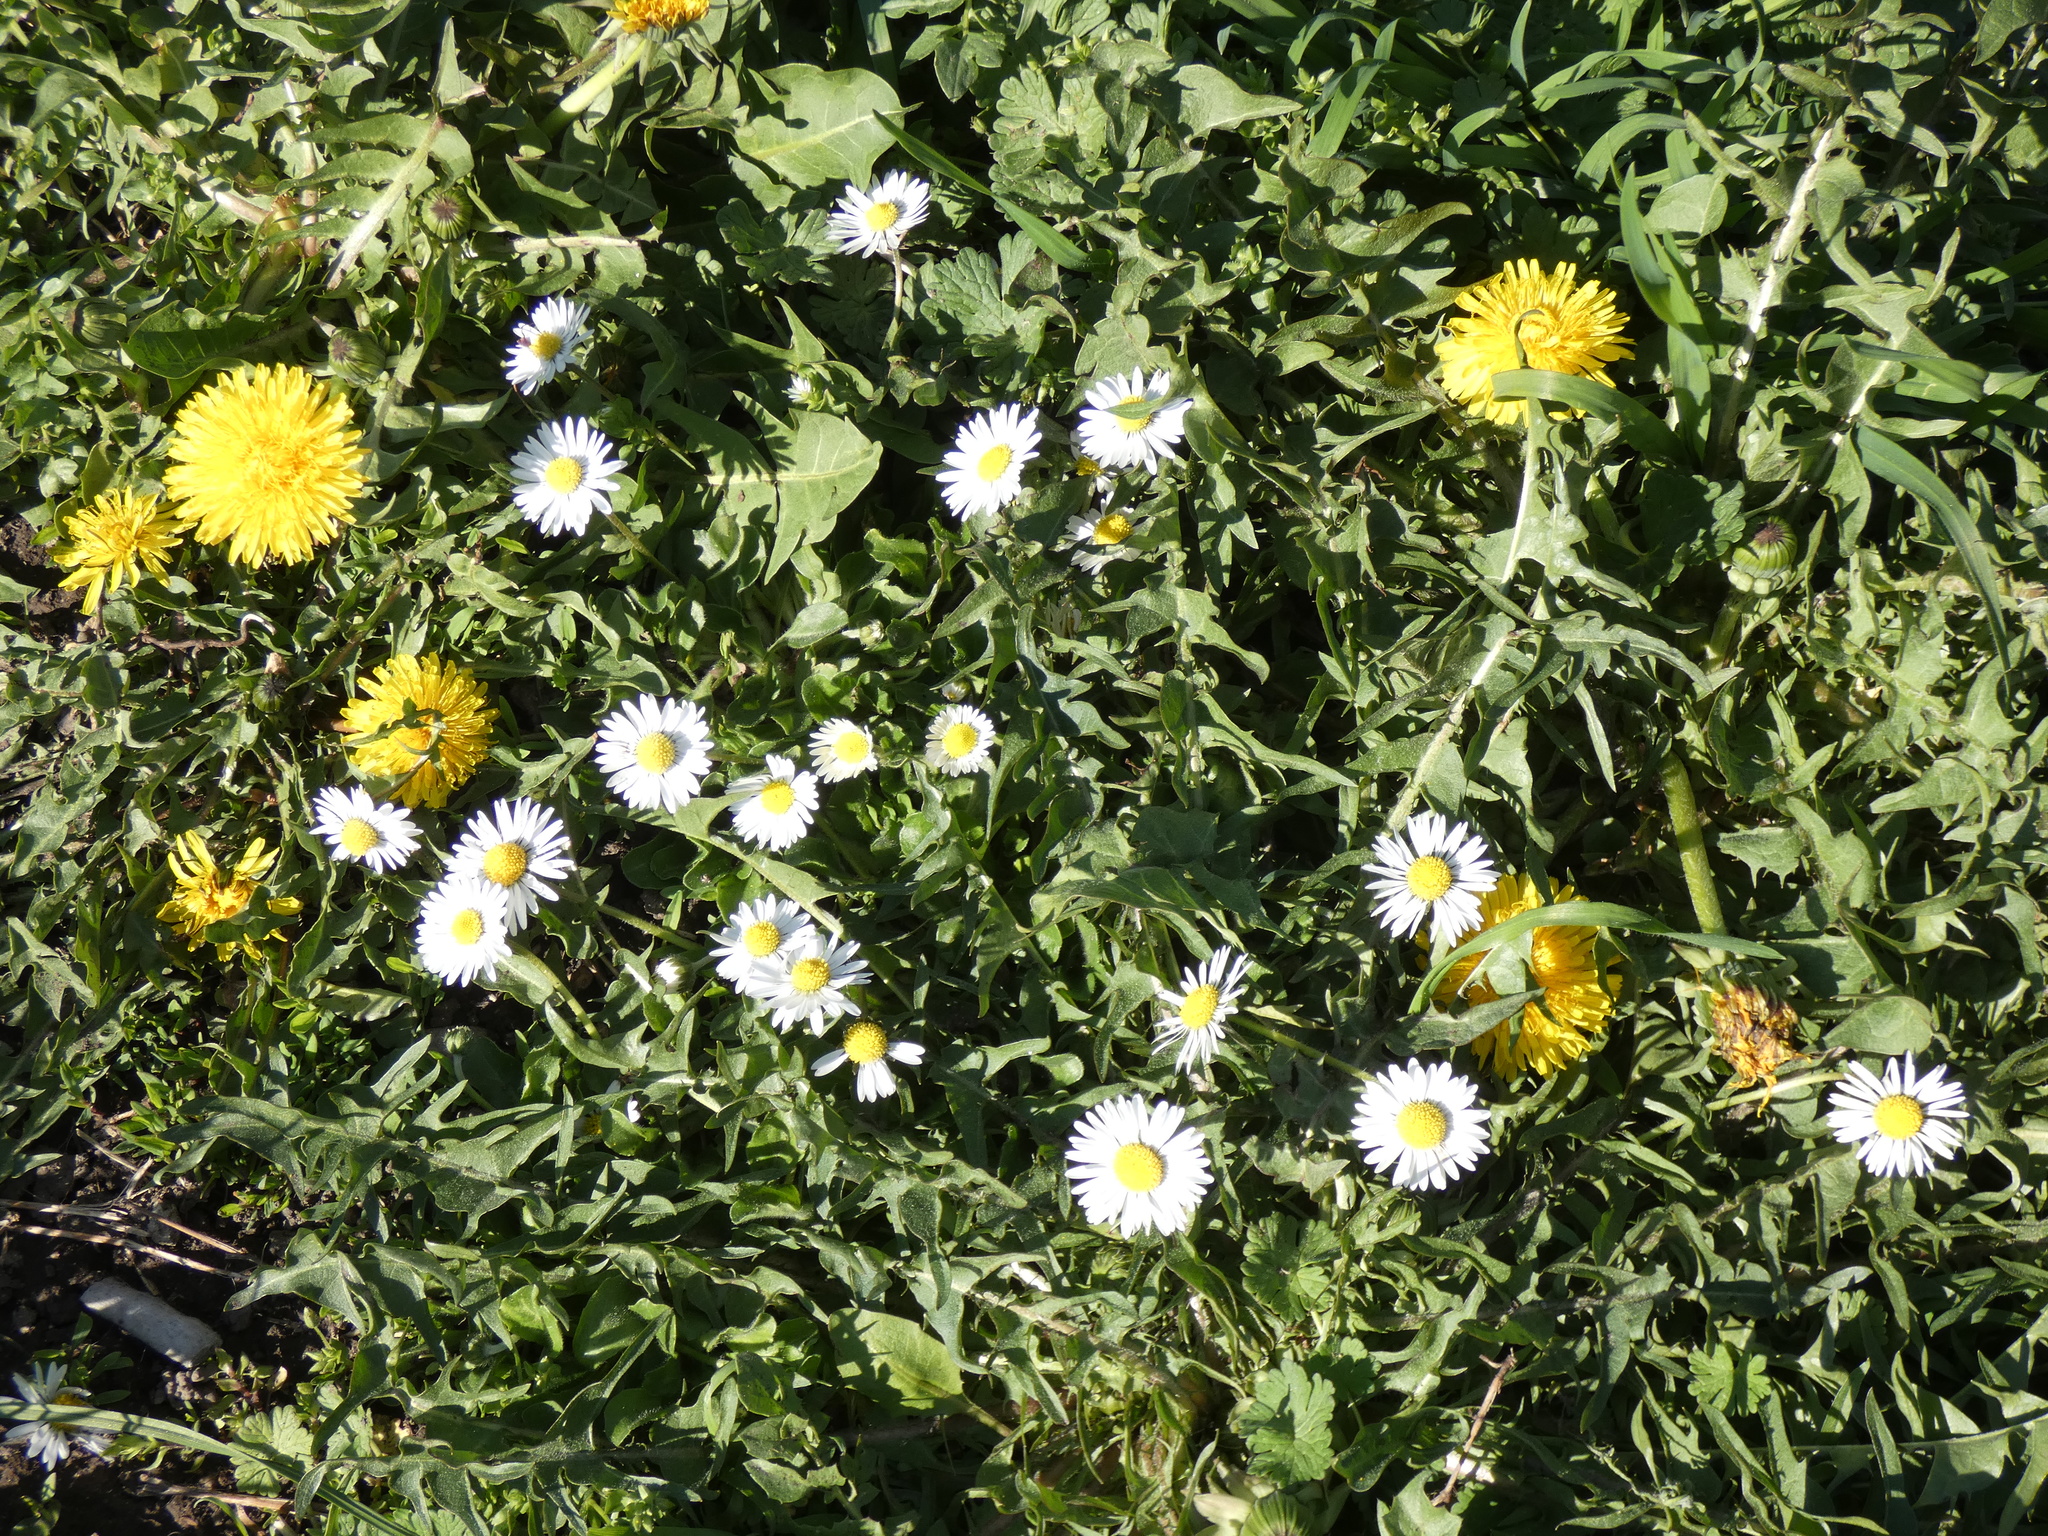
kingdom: Plantae
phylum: Tracheophyta
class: Magnoliopsida
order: Asterales
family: Asteraceae
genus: Bellis
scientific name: Bellis perennis
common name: Lawndaisy
